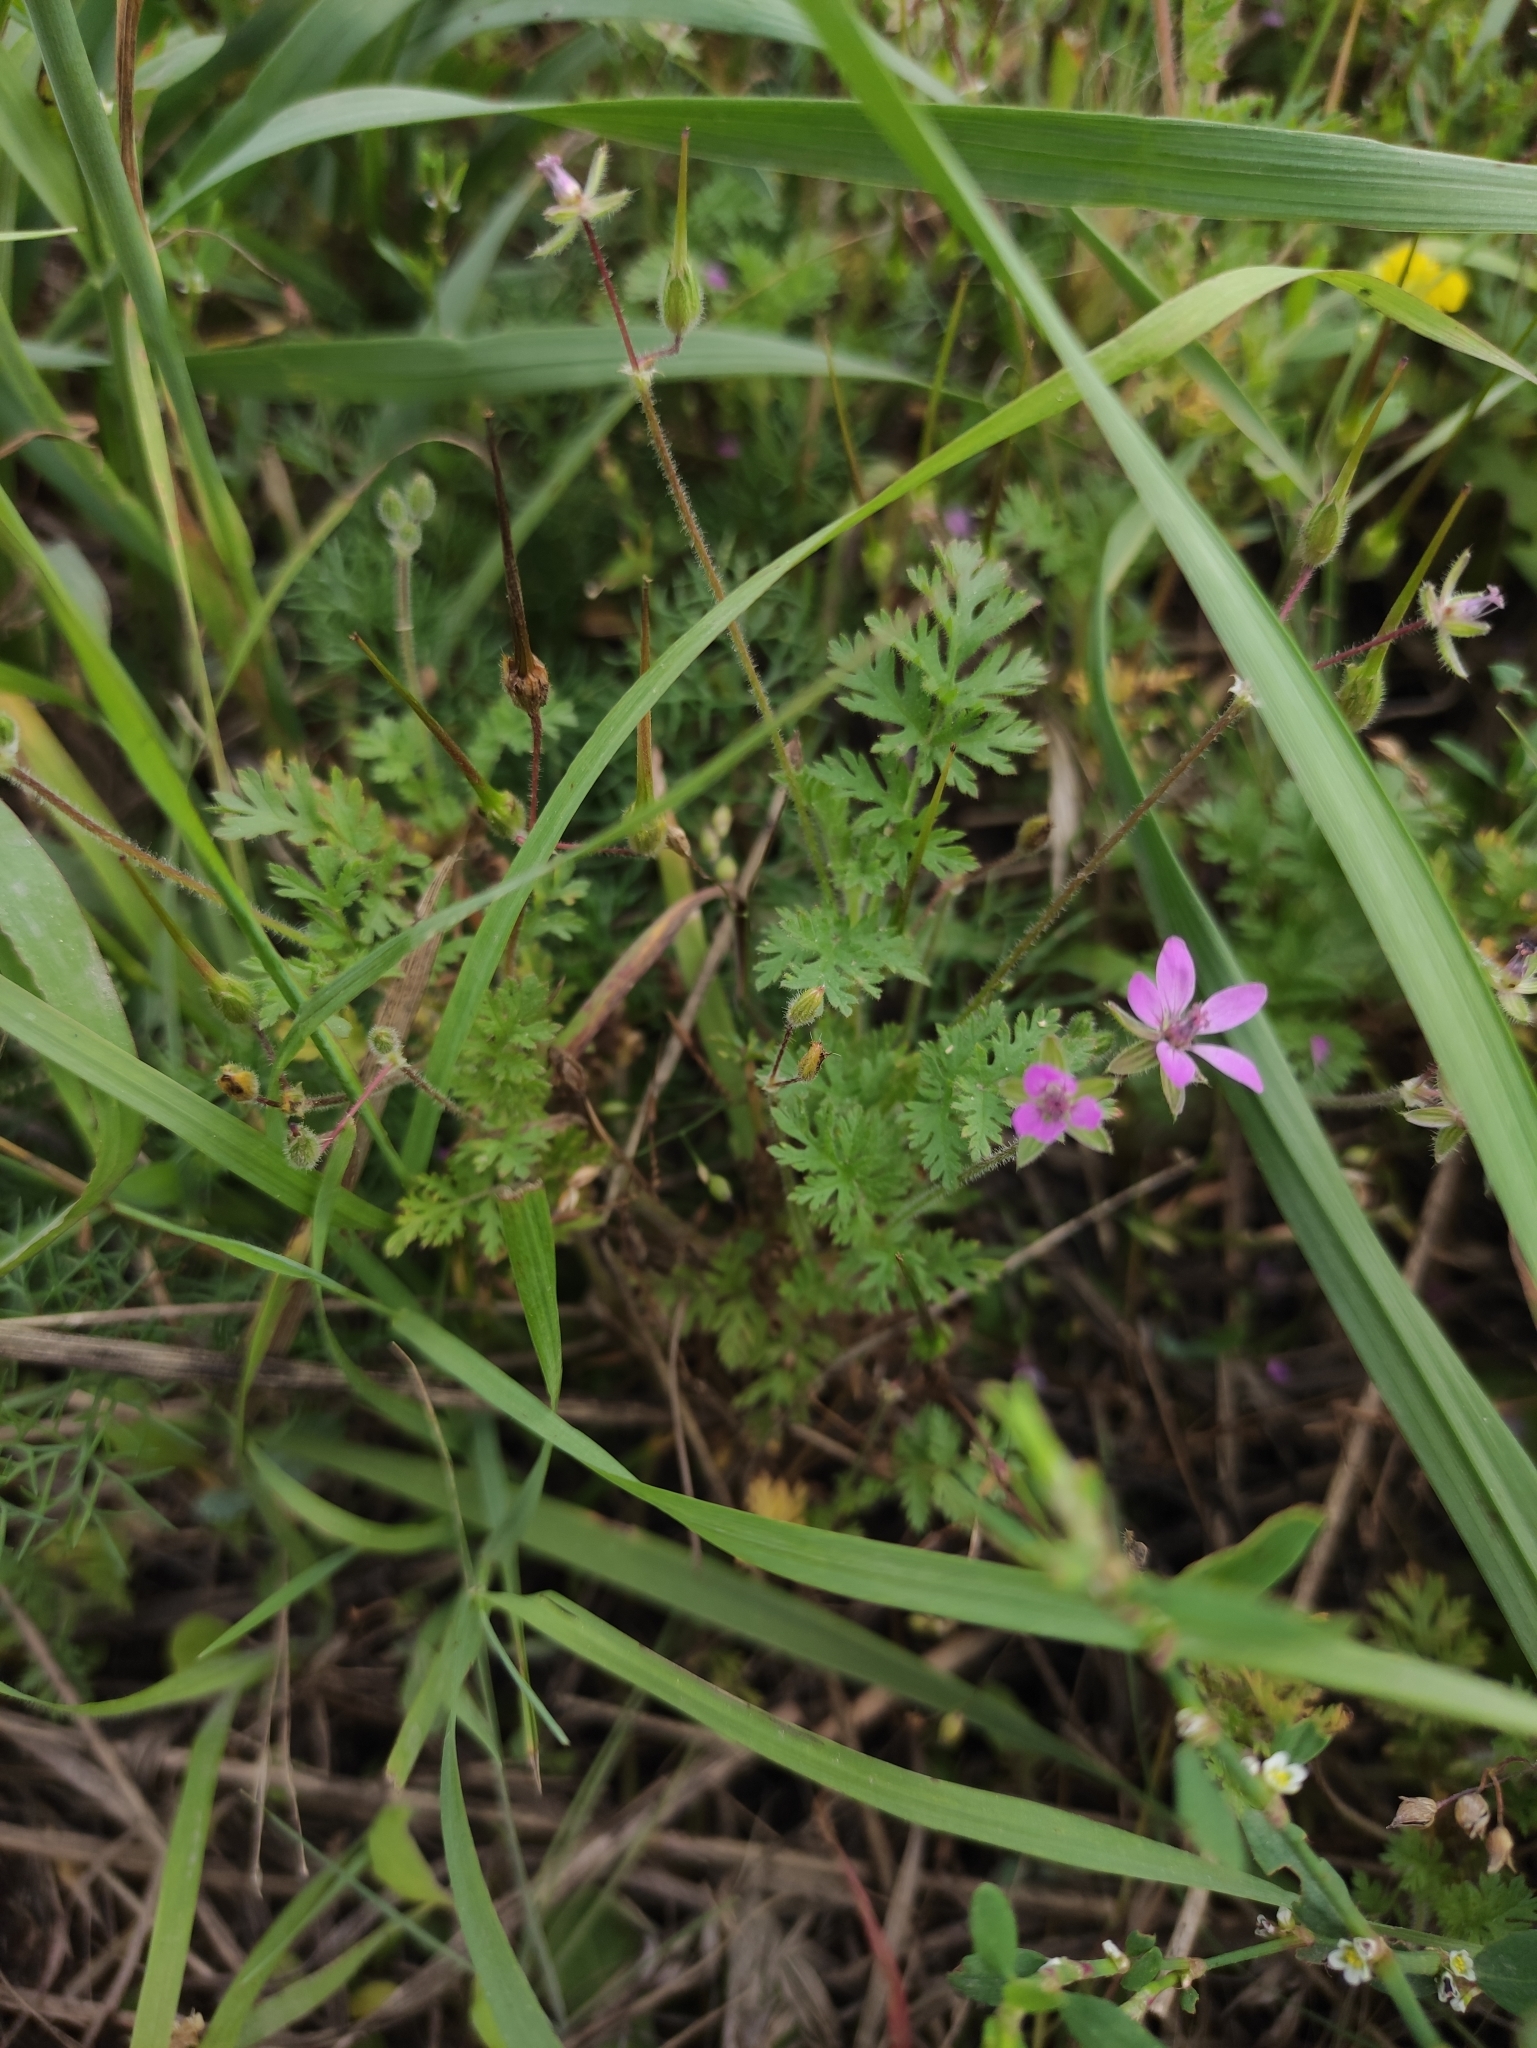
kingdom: Plantae
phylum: Tracheophyta
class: Magnoliopsida
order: Geraniales
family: Geraniaceae
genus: Erodium
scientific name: Erodium cicutarium
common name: Common stork's-bill
